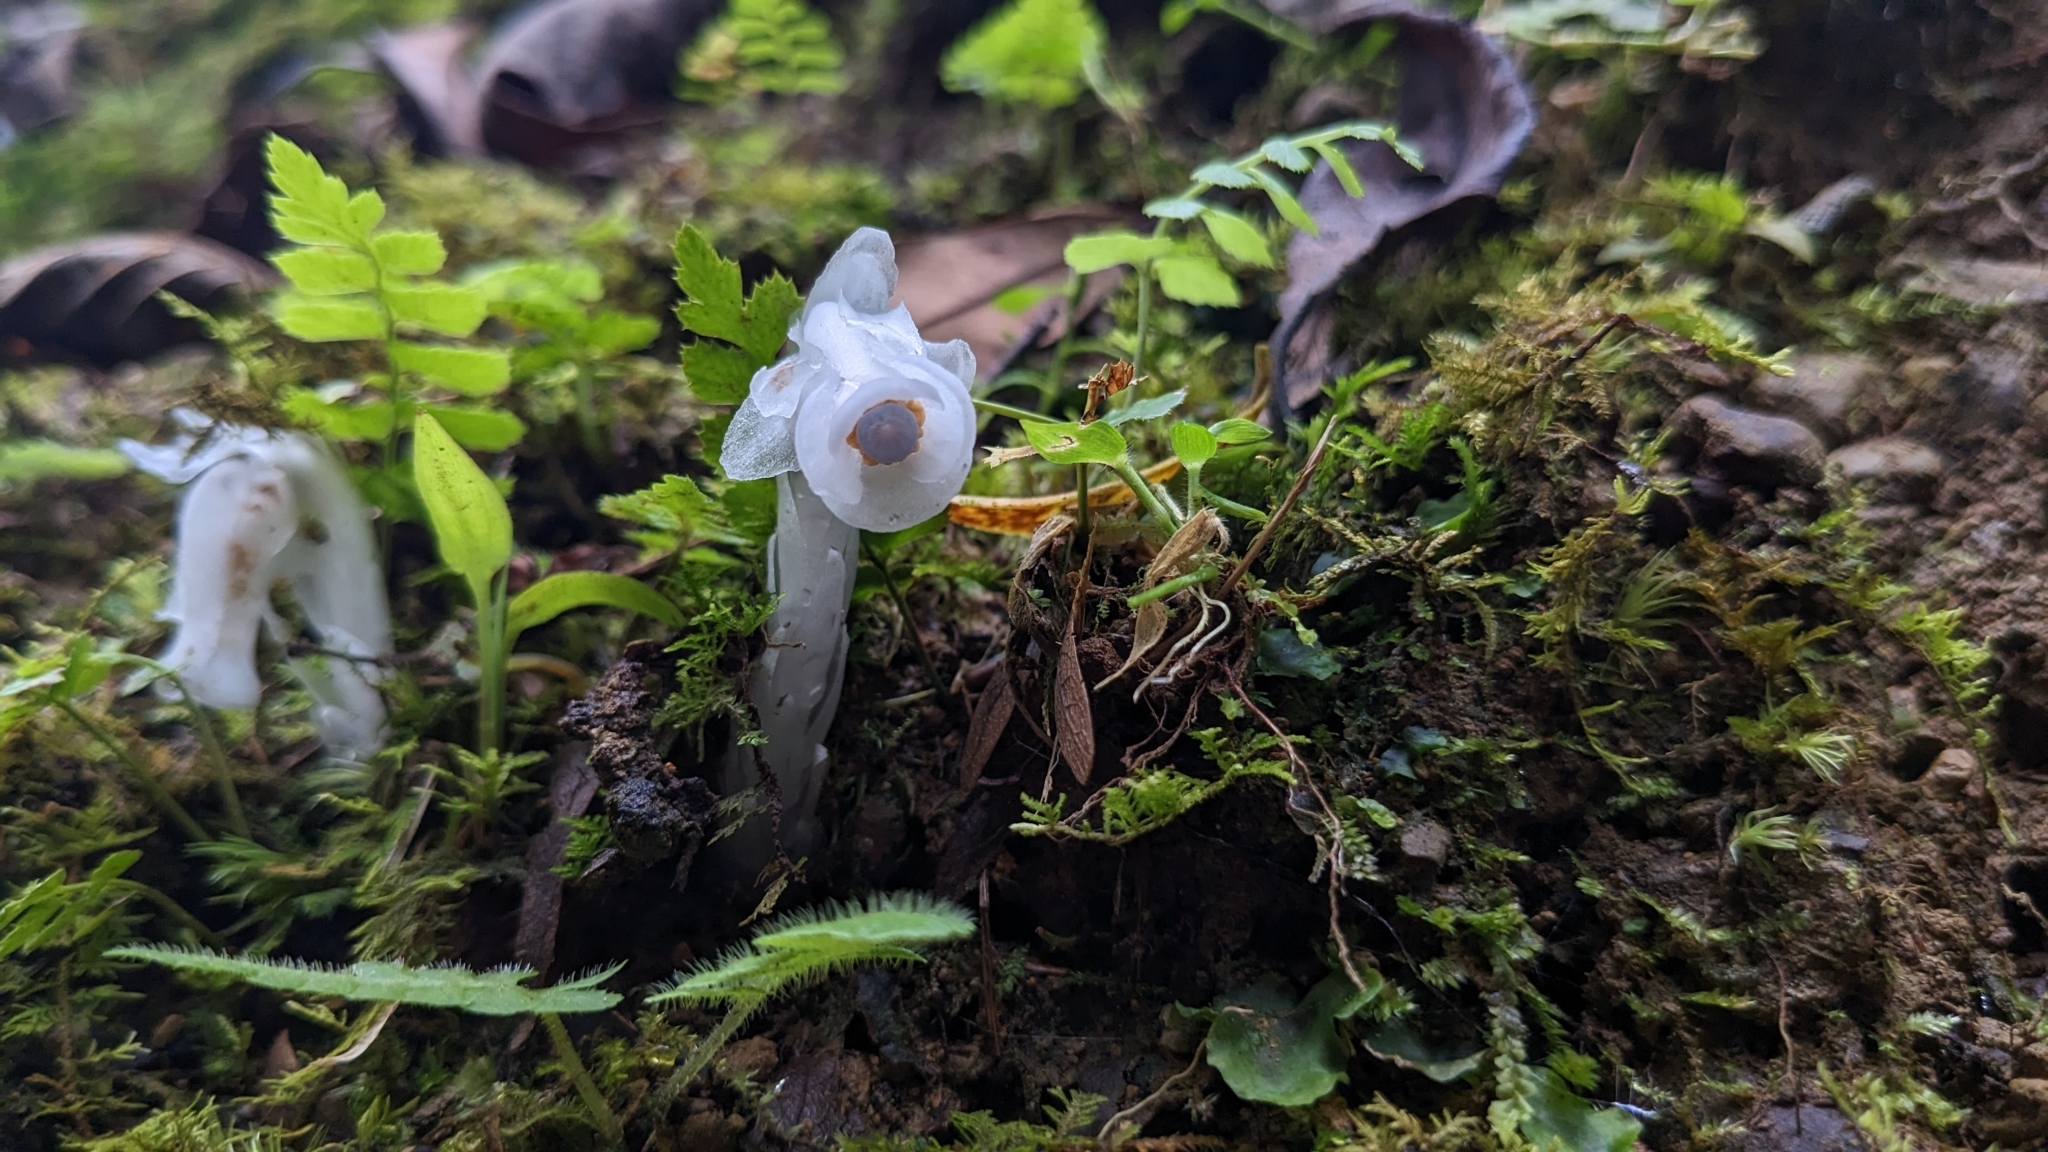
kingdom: Plantae
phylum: Tracheophyta
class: Magnoliopsida
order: Ericales
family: Ericaceae
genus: Monotropastrum
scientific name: Monotropastrum humile
